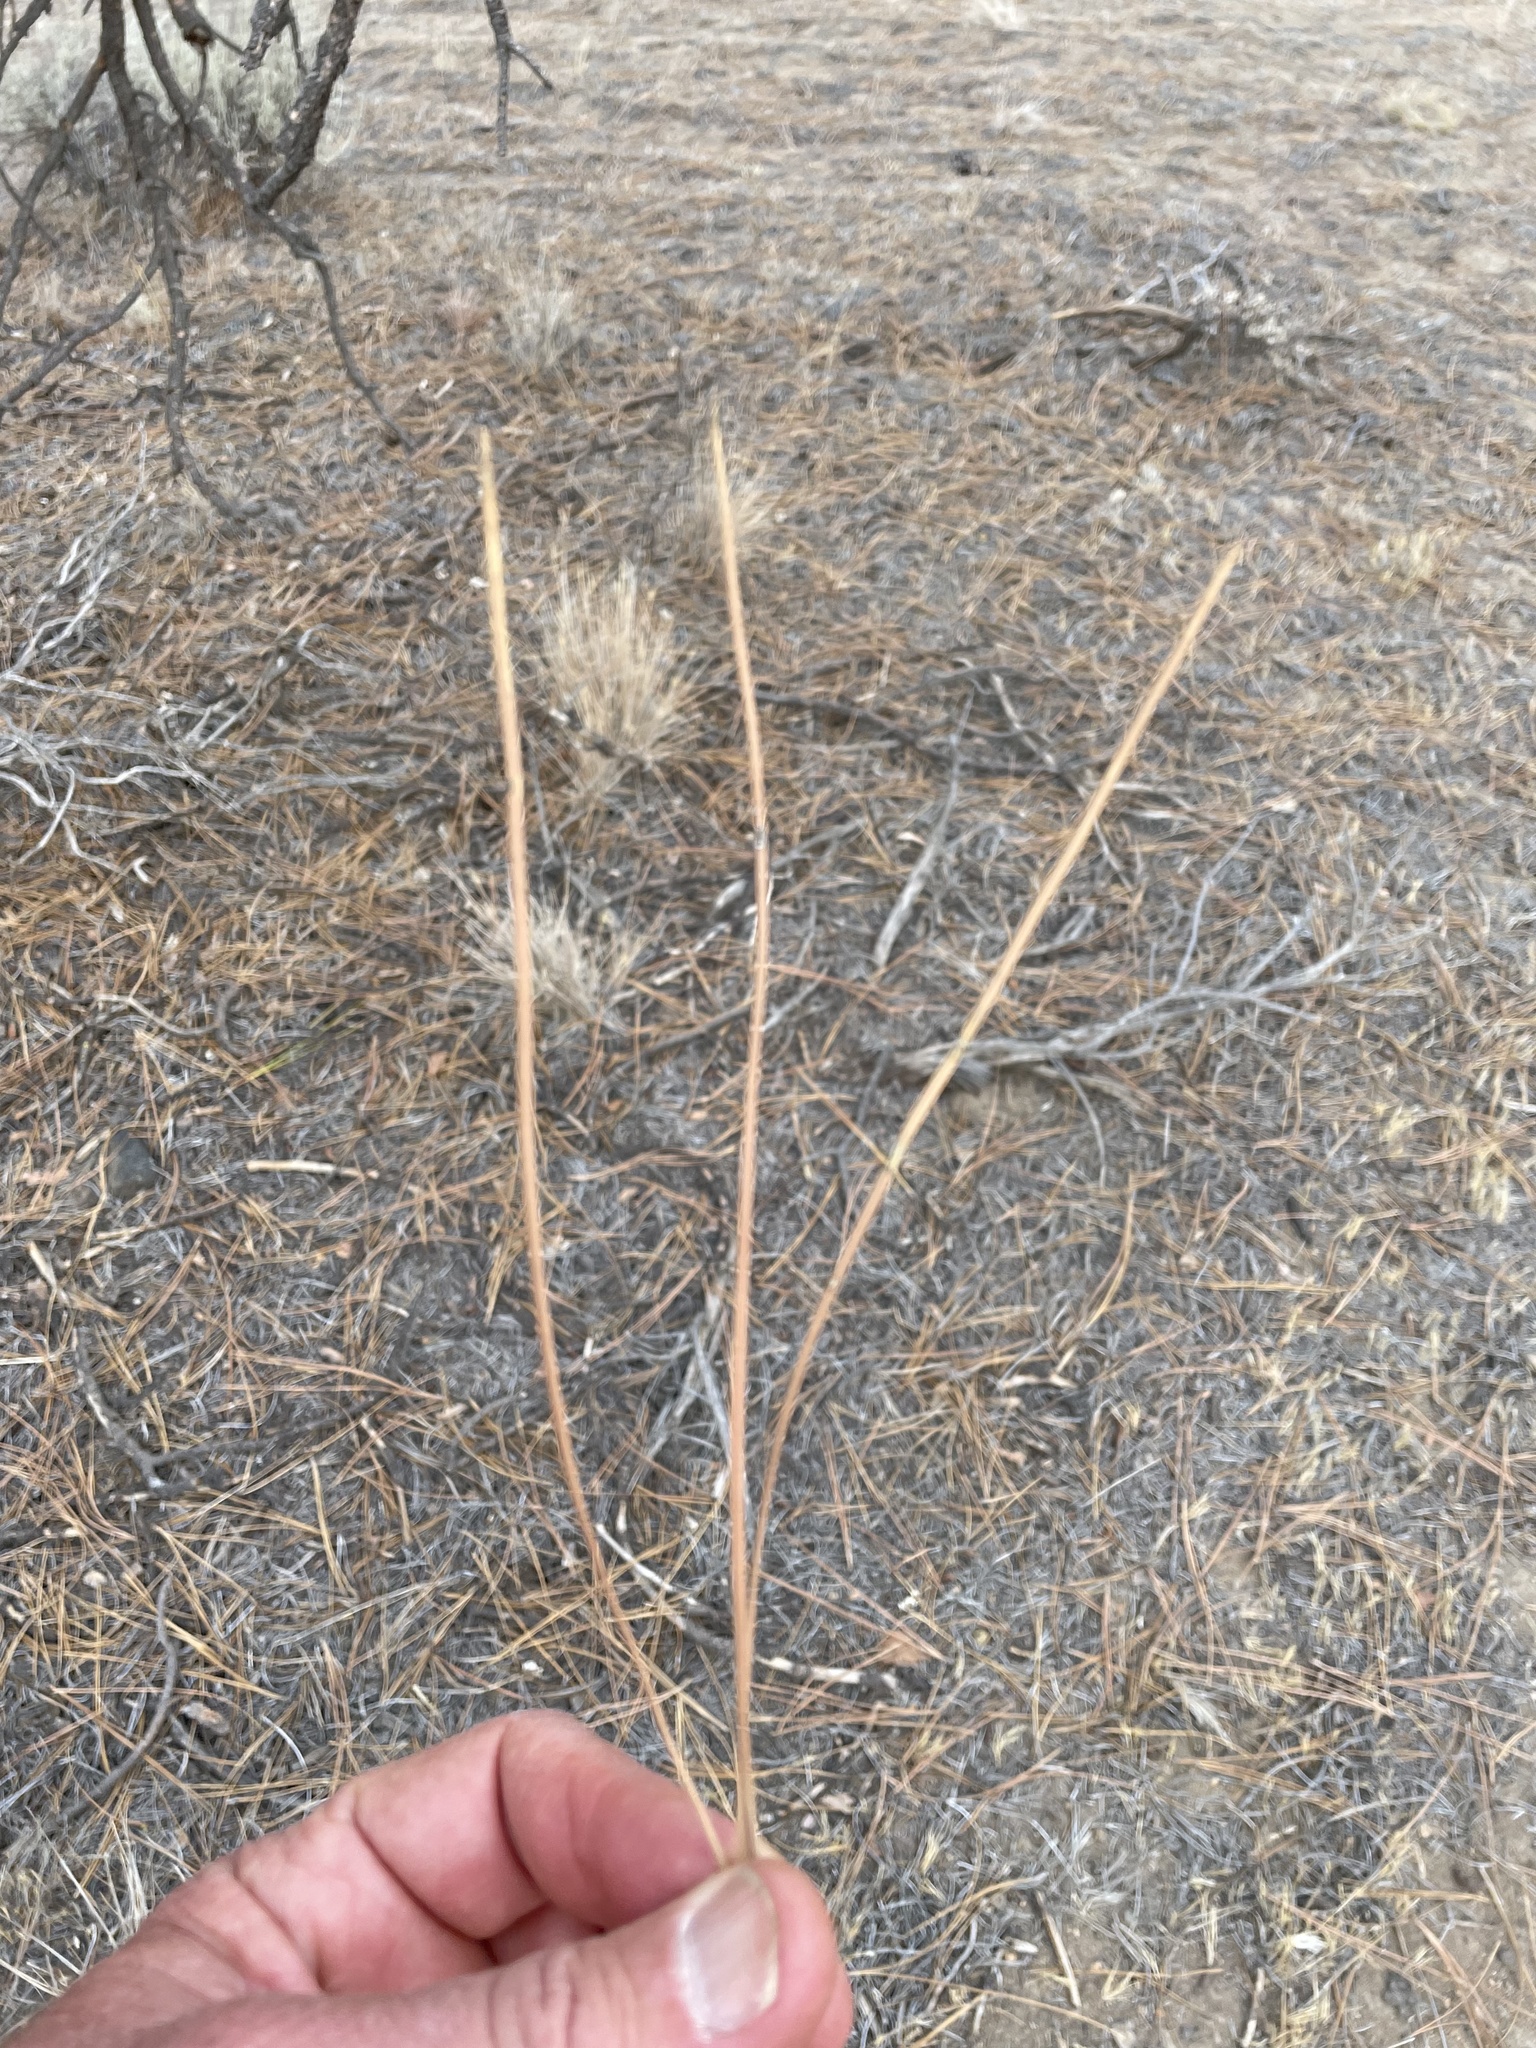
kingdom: Plantae
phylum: Tracheophyta
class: Pinopsida
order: Pinales
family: Pinaceae
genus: Pinus
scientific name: Pinus ponderosa
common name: Western yellow-pine
